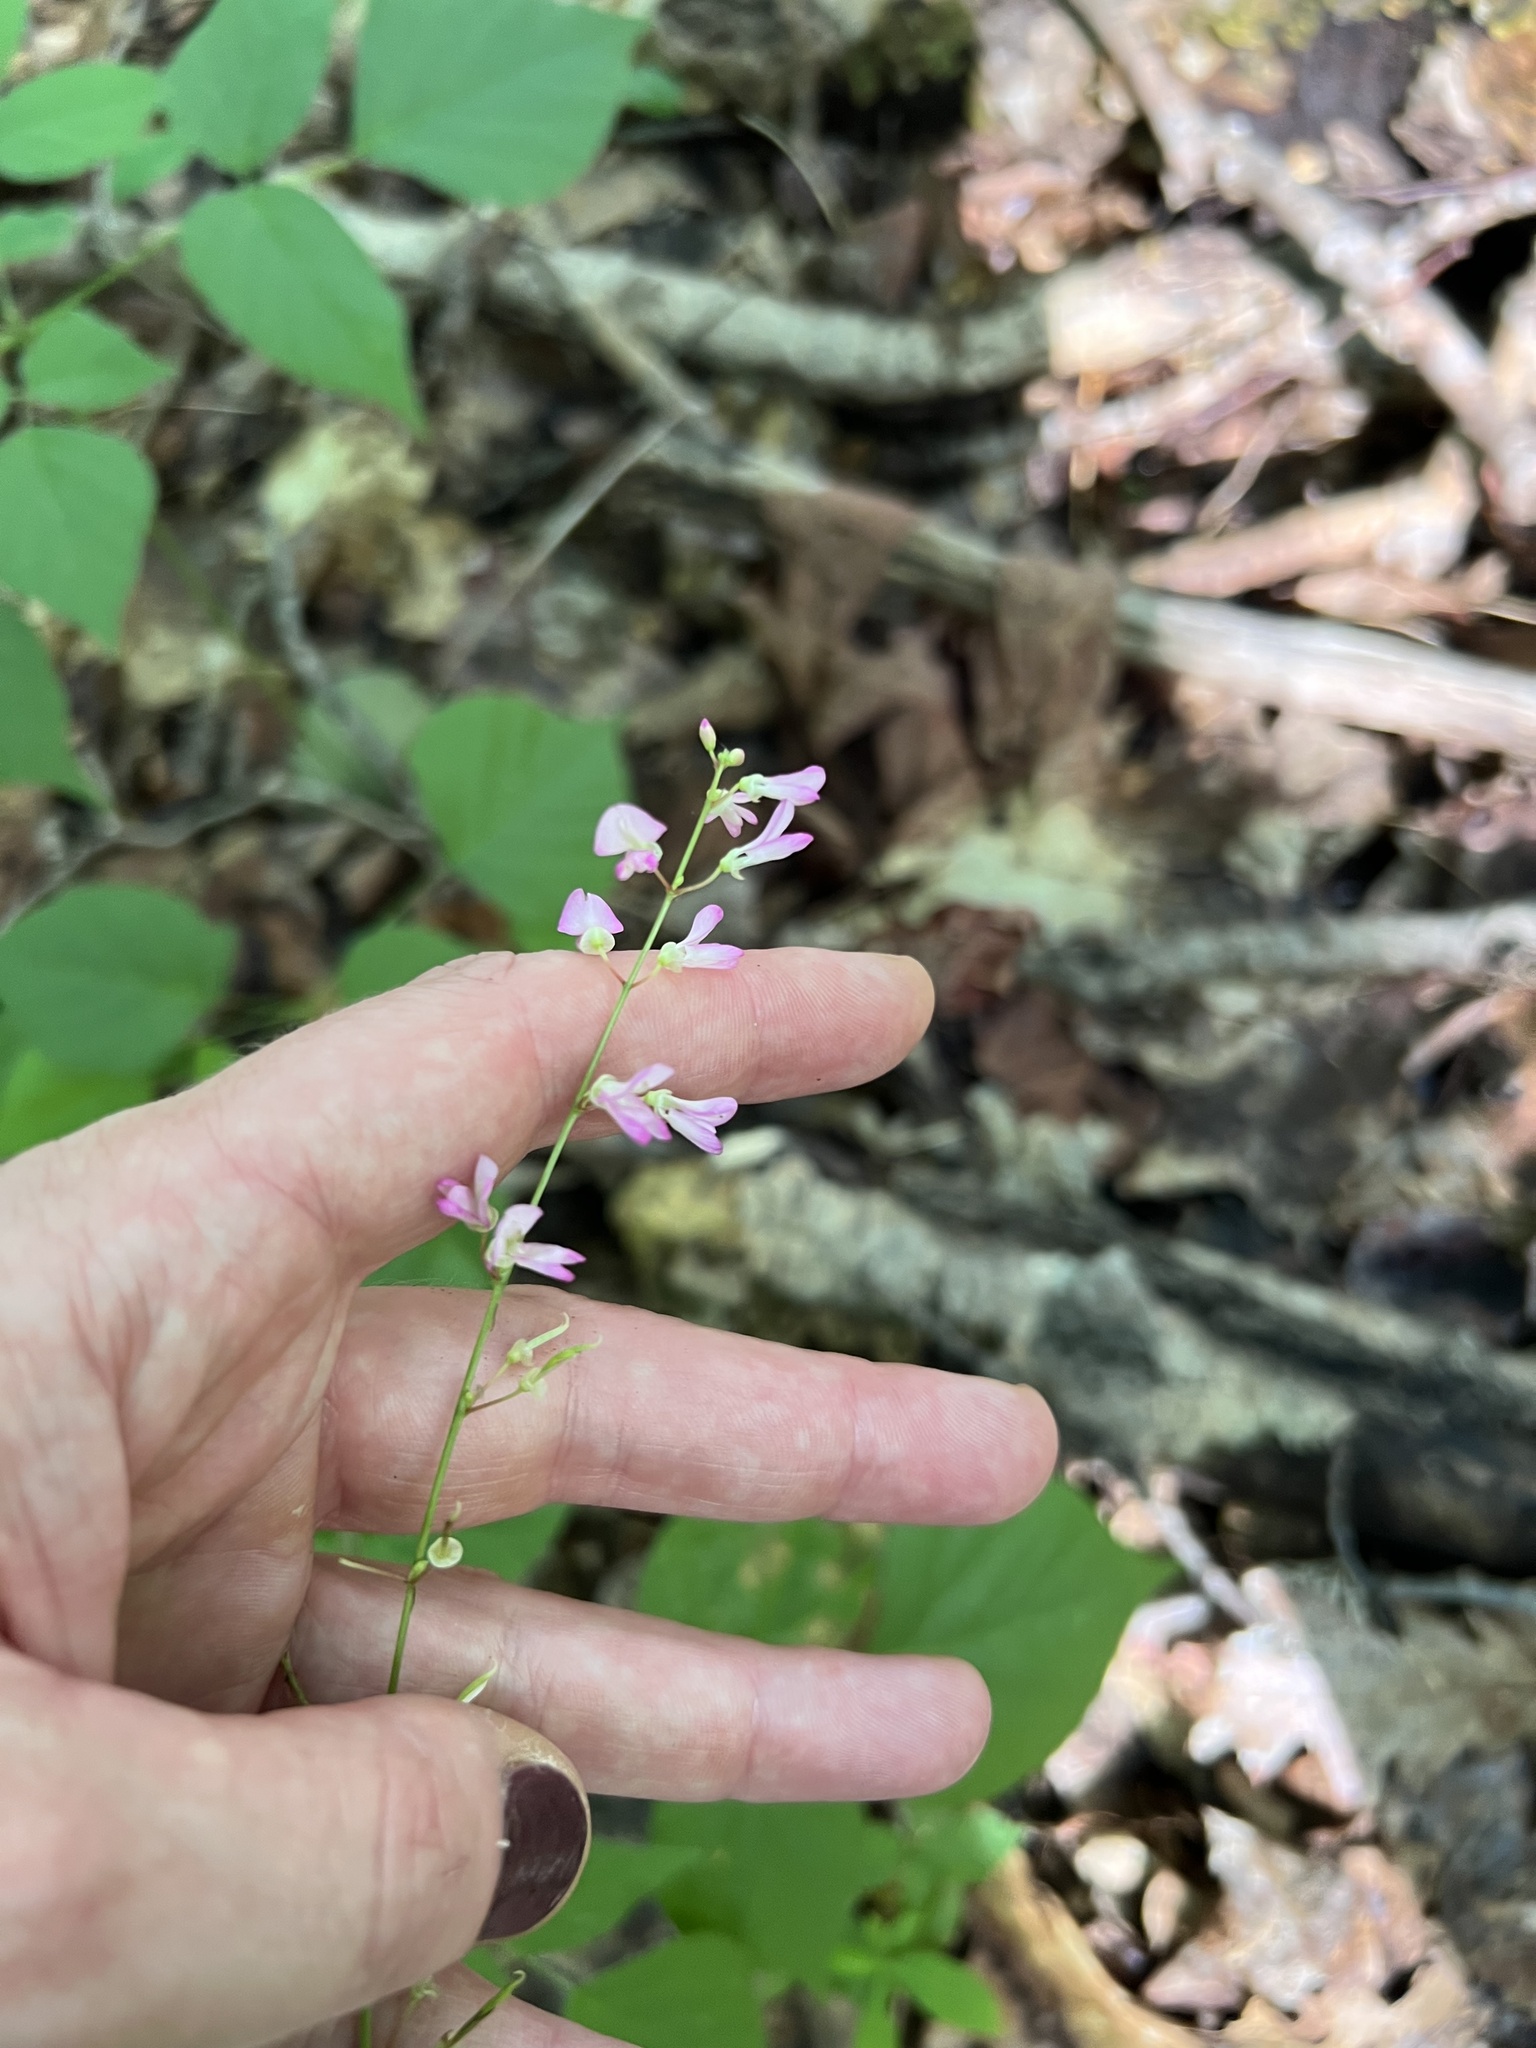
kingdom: Plantae
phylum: Tracheophyta
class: Magnoliopsida
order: Fabales
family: Fabaceae
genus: Hylodesmum
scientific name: Hylodesmum glutinosum
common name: Clustered-leaved tick-trefoil
